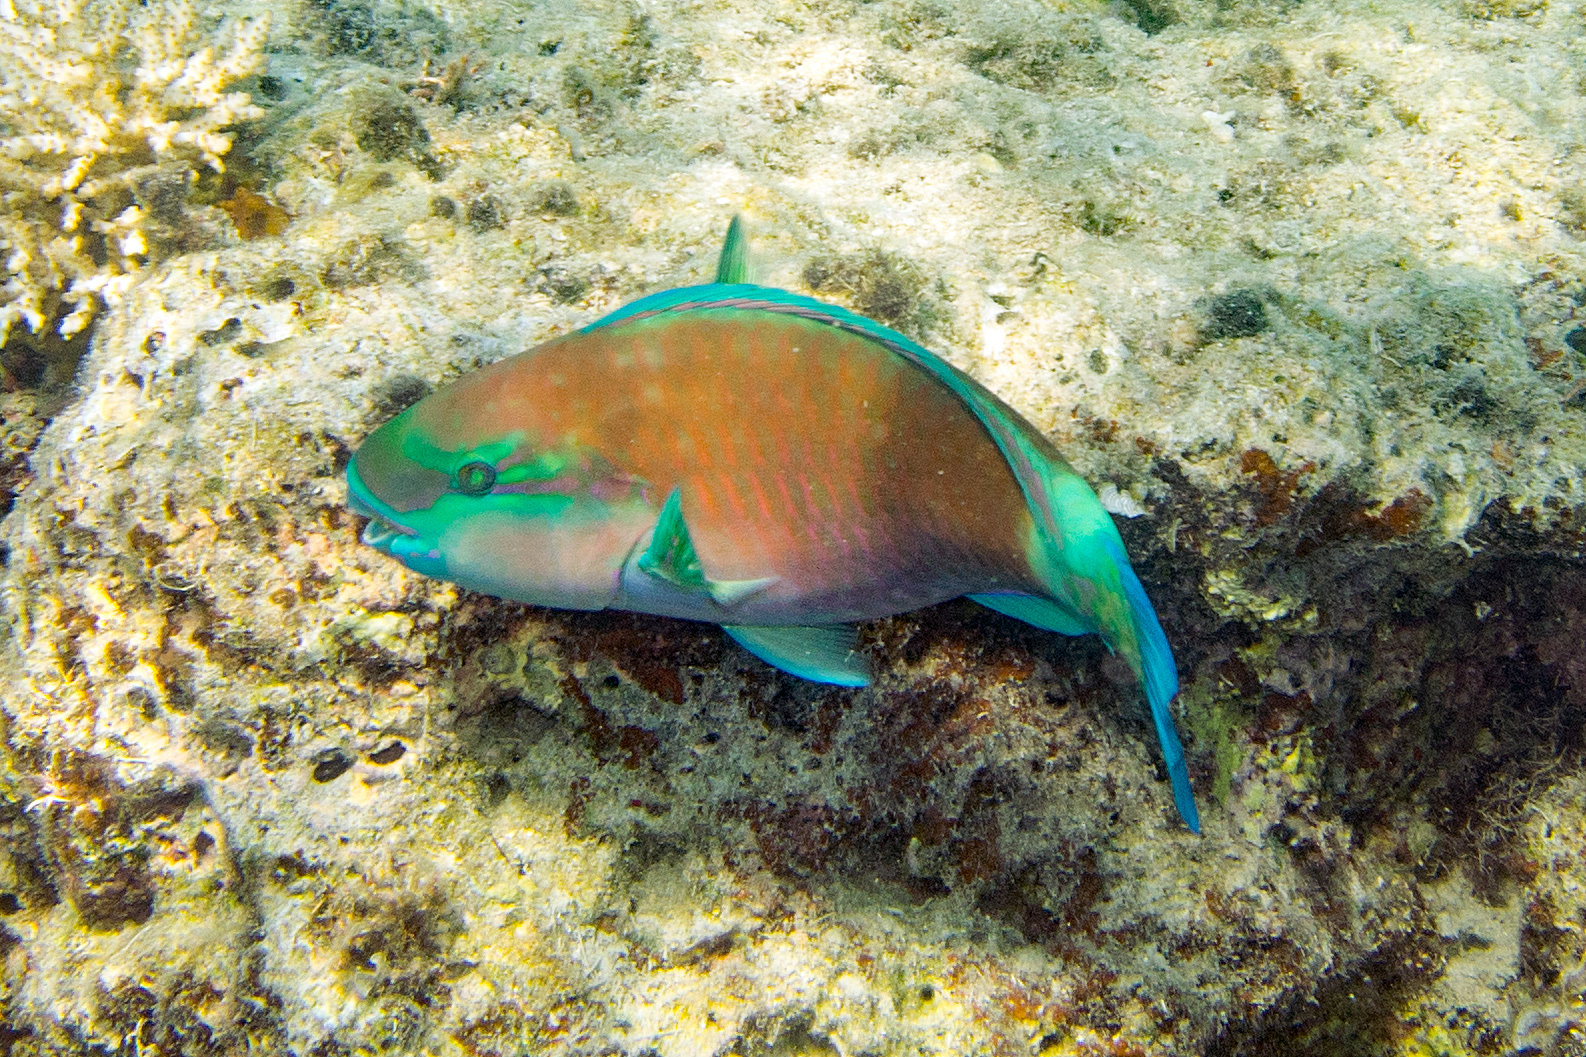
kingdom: Animalia
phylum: Chordata
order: Perciformes
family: Scaridae
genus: Chlorurus
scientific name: Chlorurus spilurus
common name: Bullethead parrotfish
